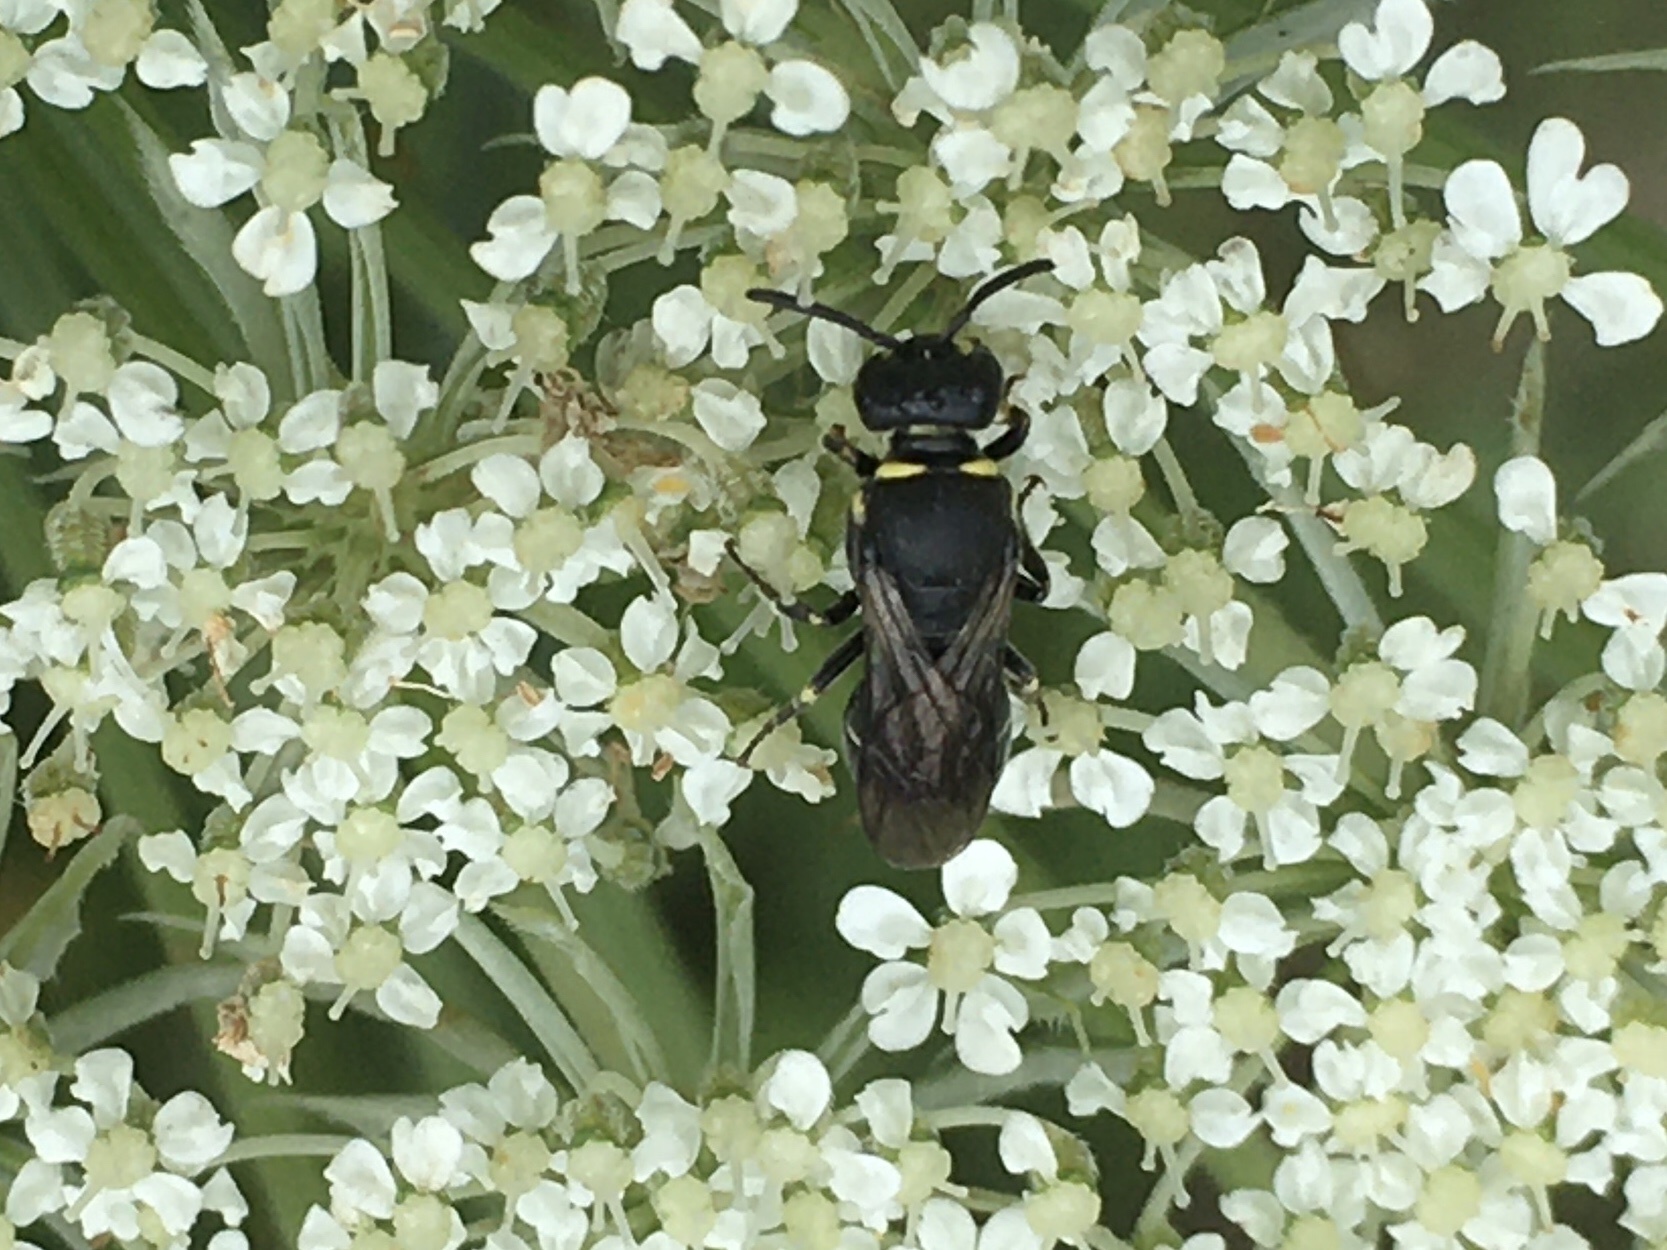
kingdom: Animalia
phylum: Arthropoda
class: Insecta
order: Hymenoptera
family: Colletidae
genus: Hylaeus
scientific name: Hylaeus modestus
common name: Yellow-faced bee
